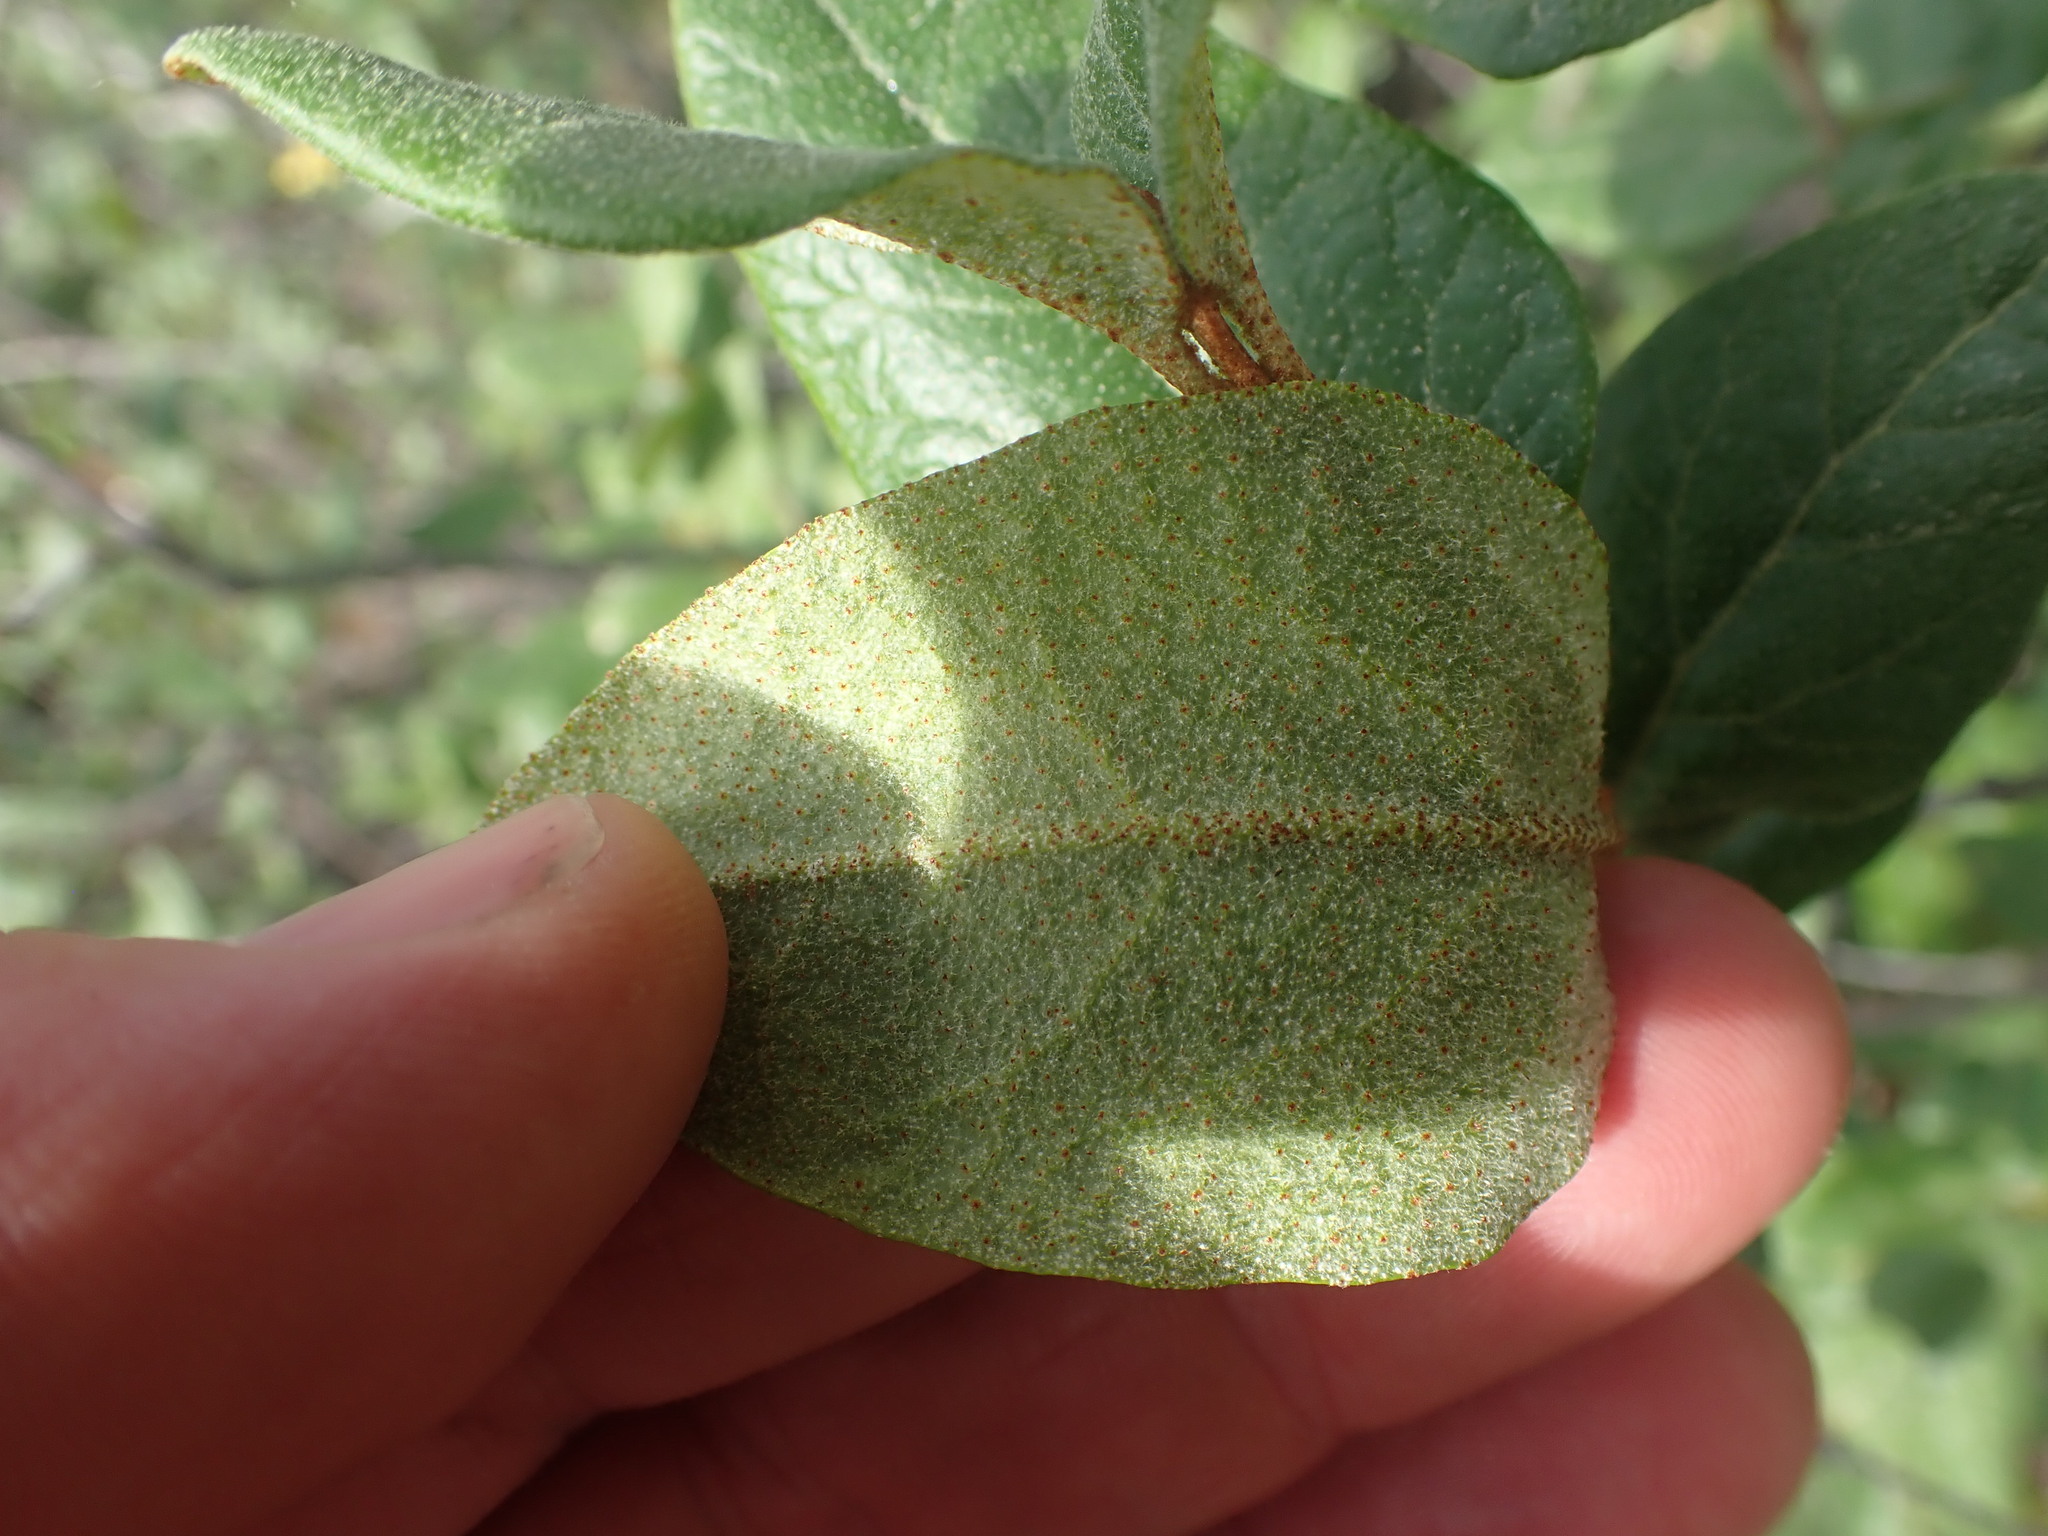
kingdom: Plantae
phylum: Tracheophyta
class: Magnoliopsida
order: Rosales
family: Elaeagnaceae
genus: Shepherdia
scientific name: Shepherdia canadensis
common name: Soapberry
